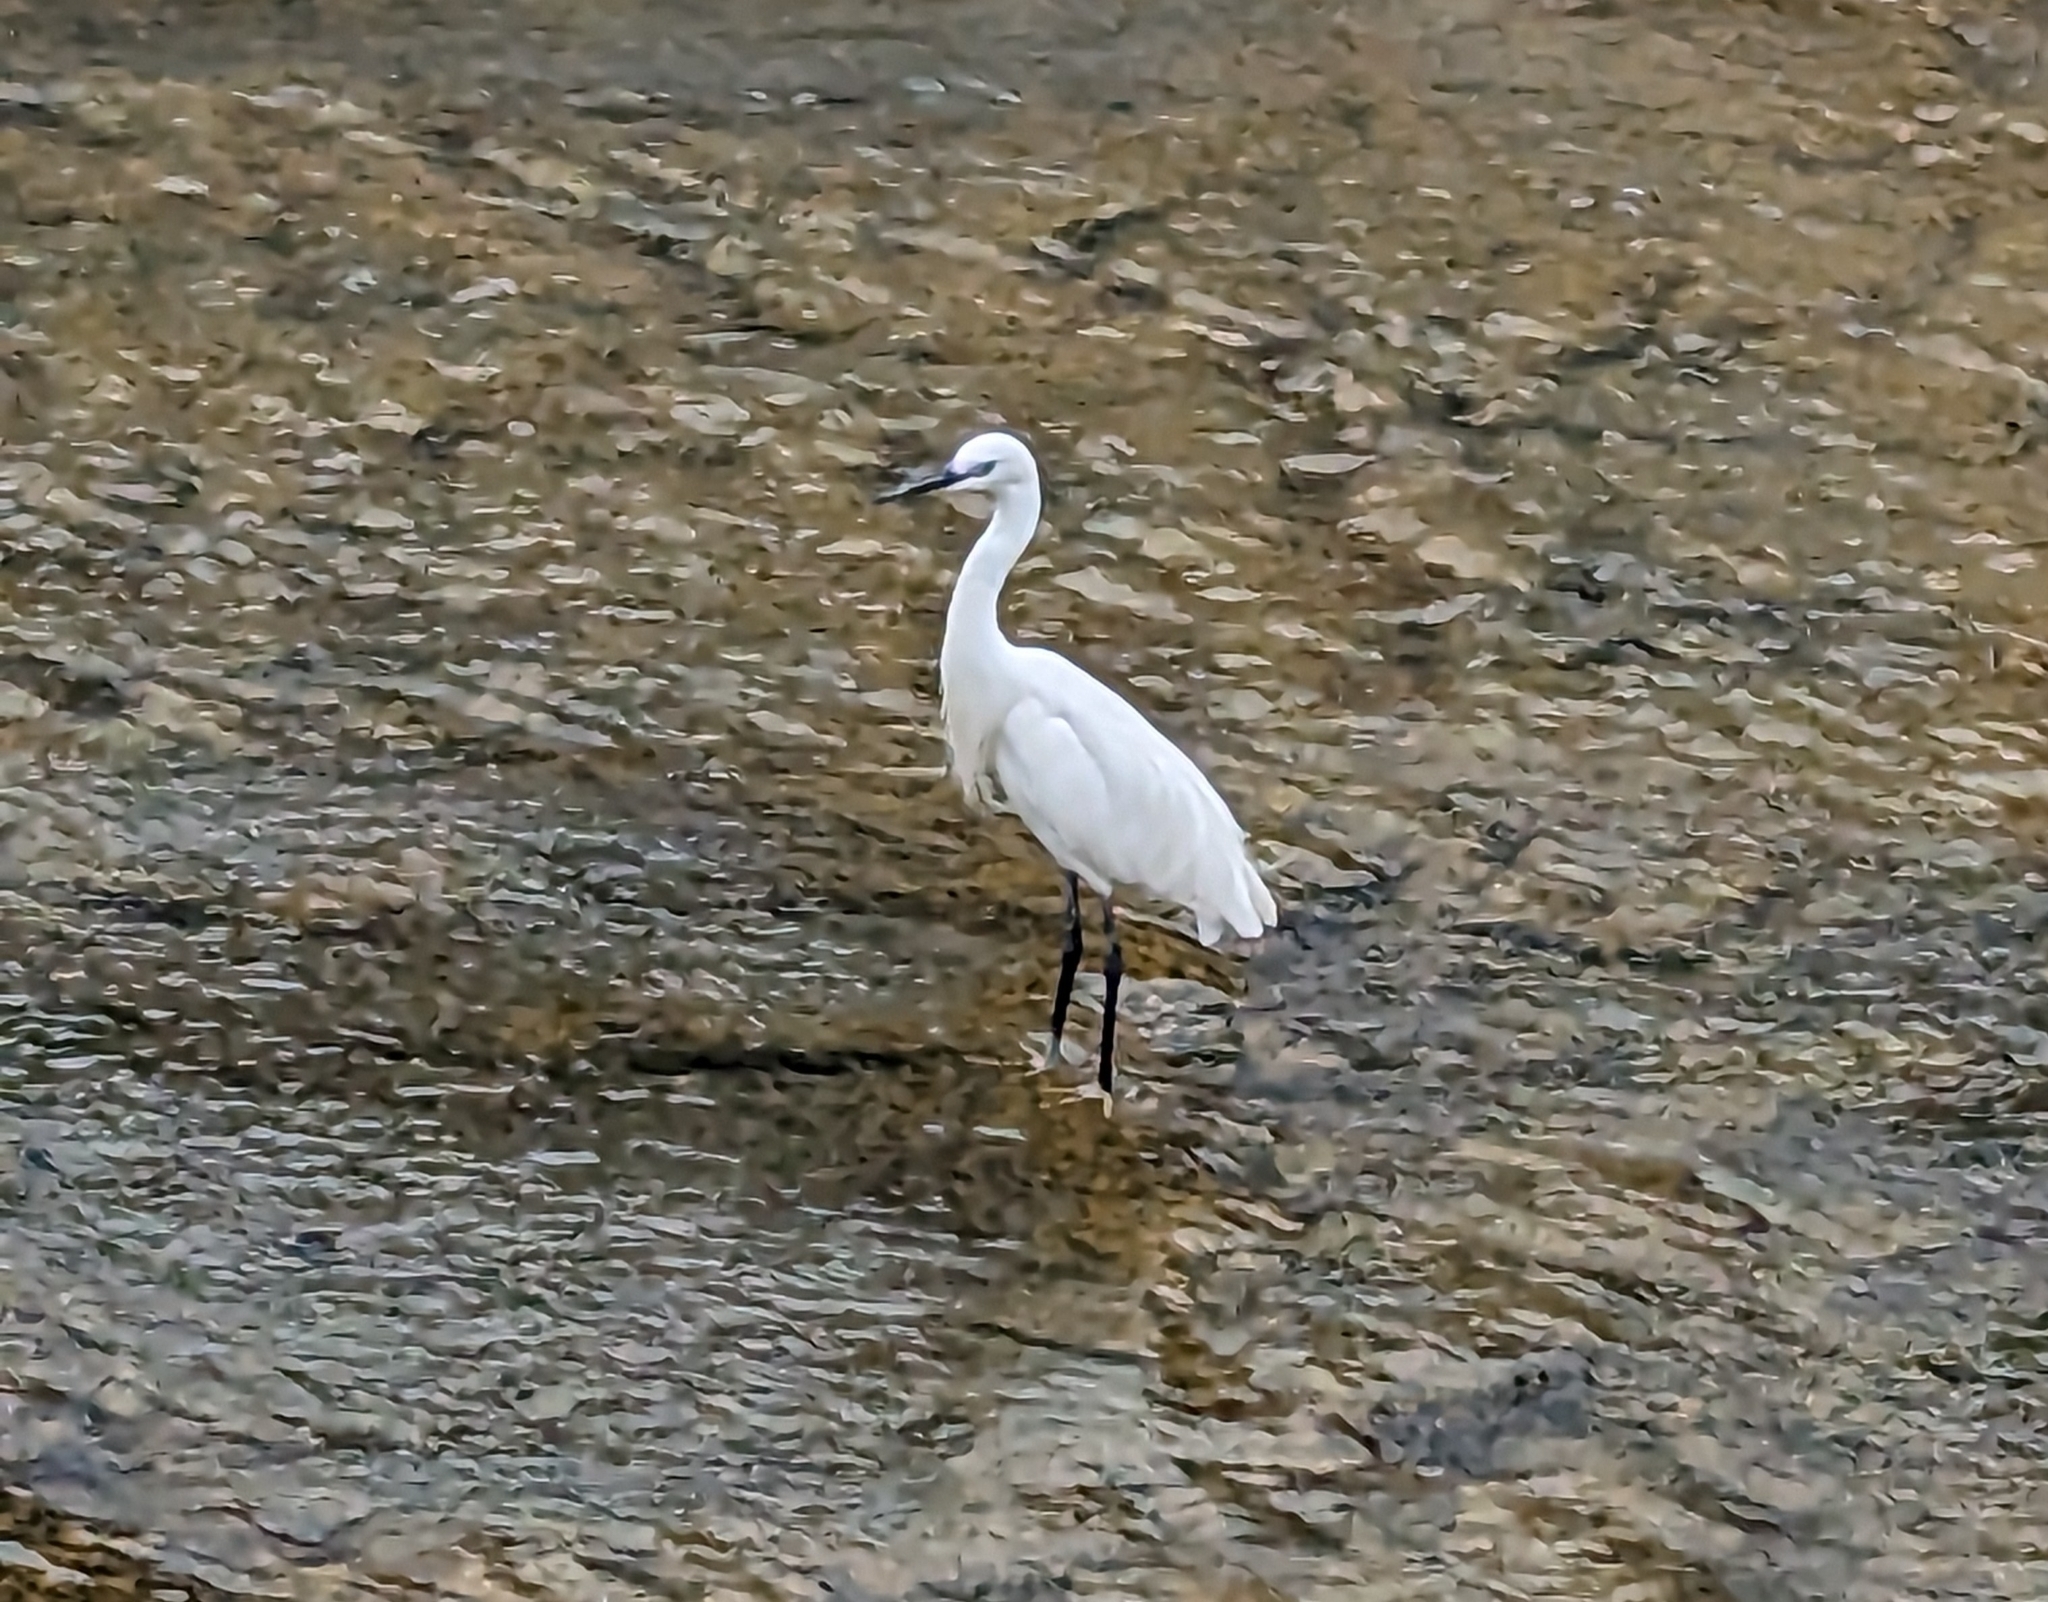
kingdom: Animalia
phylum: Chordata
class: Aves
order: Pelecaniformes
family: Ardeidae
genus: Egretta
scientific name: Egretta garzetta
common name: Little egret
